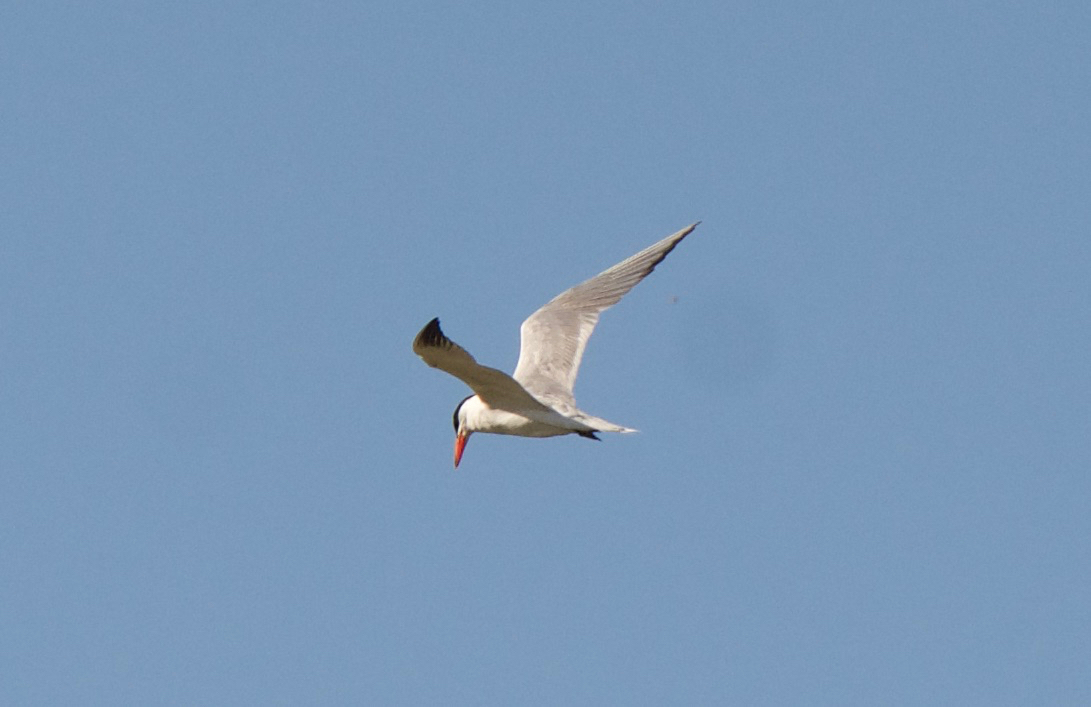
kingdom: Animalia
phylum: Chordata
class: Aves
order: Charadriiformes
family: Laridae
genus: Hydroprogne
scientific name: Hydroprogne caspia
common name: Caspian tern
